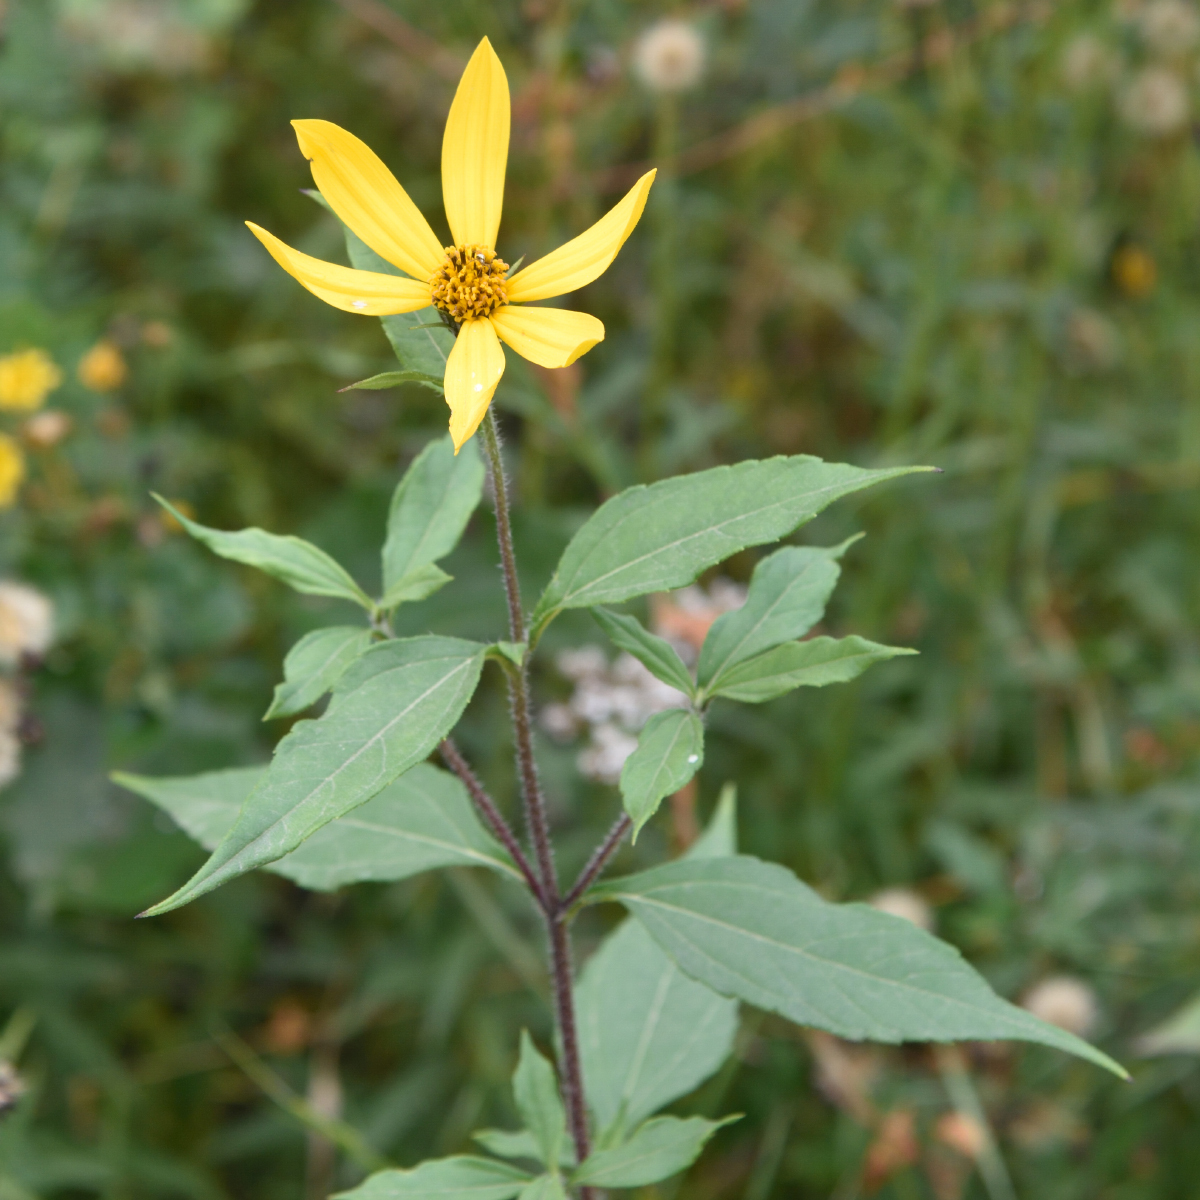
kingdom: Plantae
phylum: Tracheophyta
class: Magnoliopsida
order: Asterales
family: Asteraceae
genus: Helianthus
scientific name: Helianthus tuberosus
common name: Jerusalem artichoke
